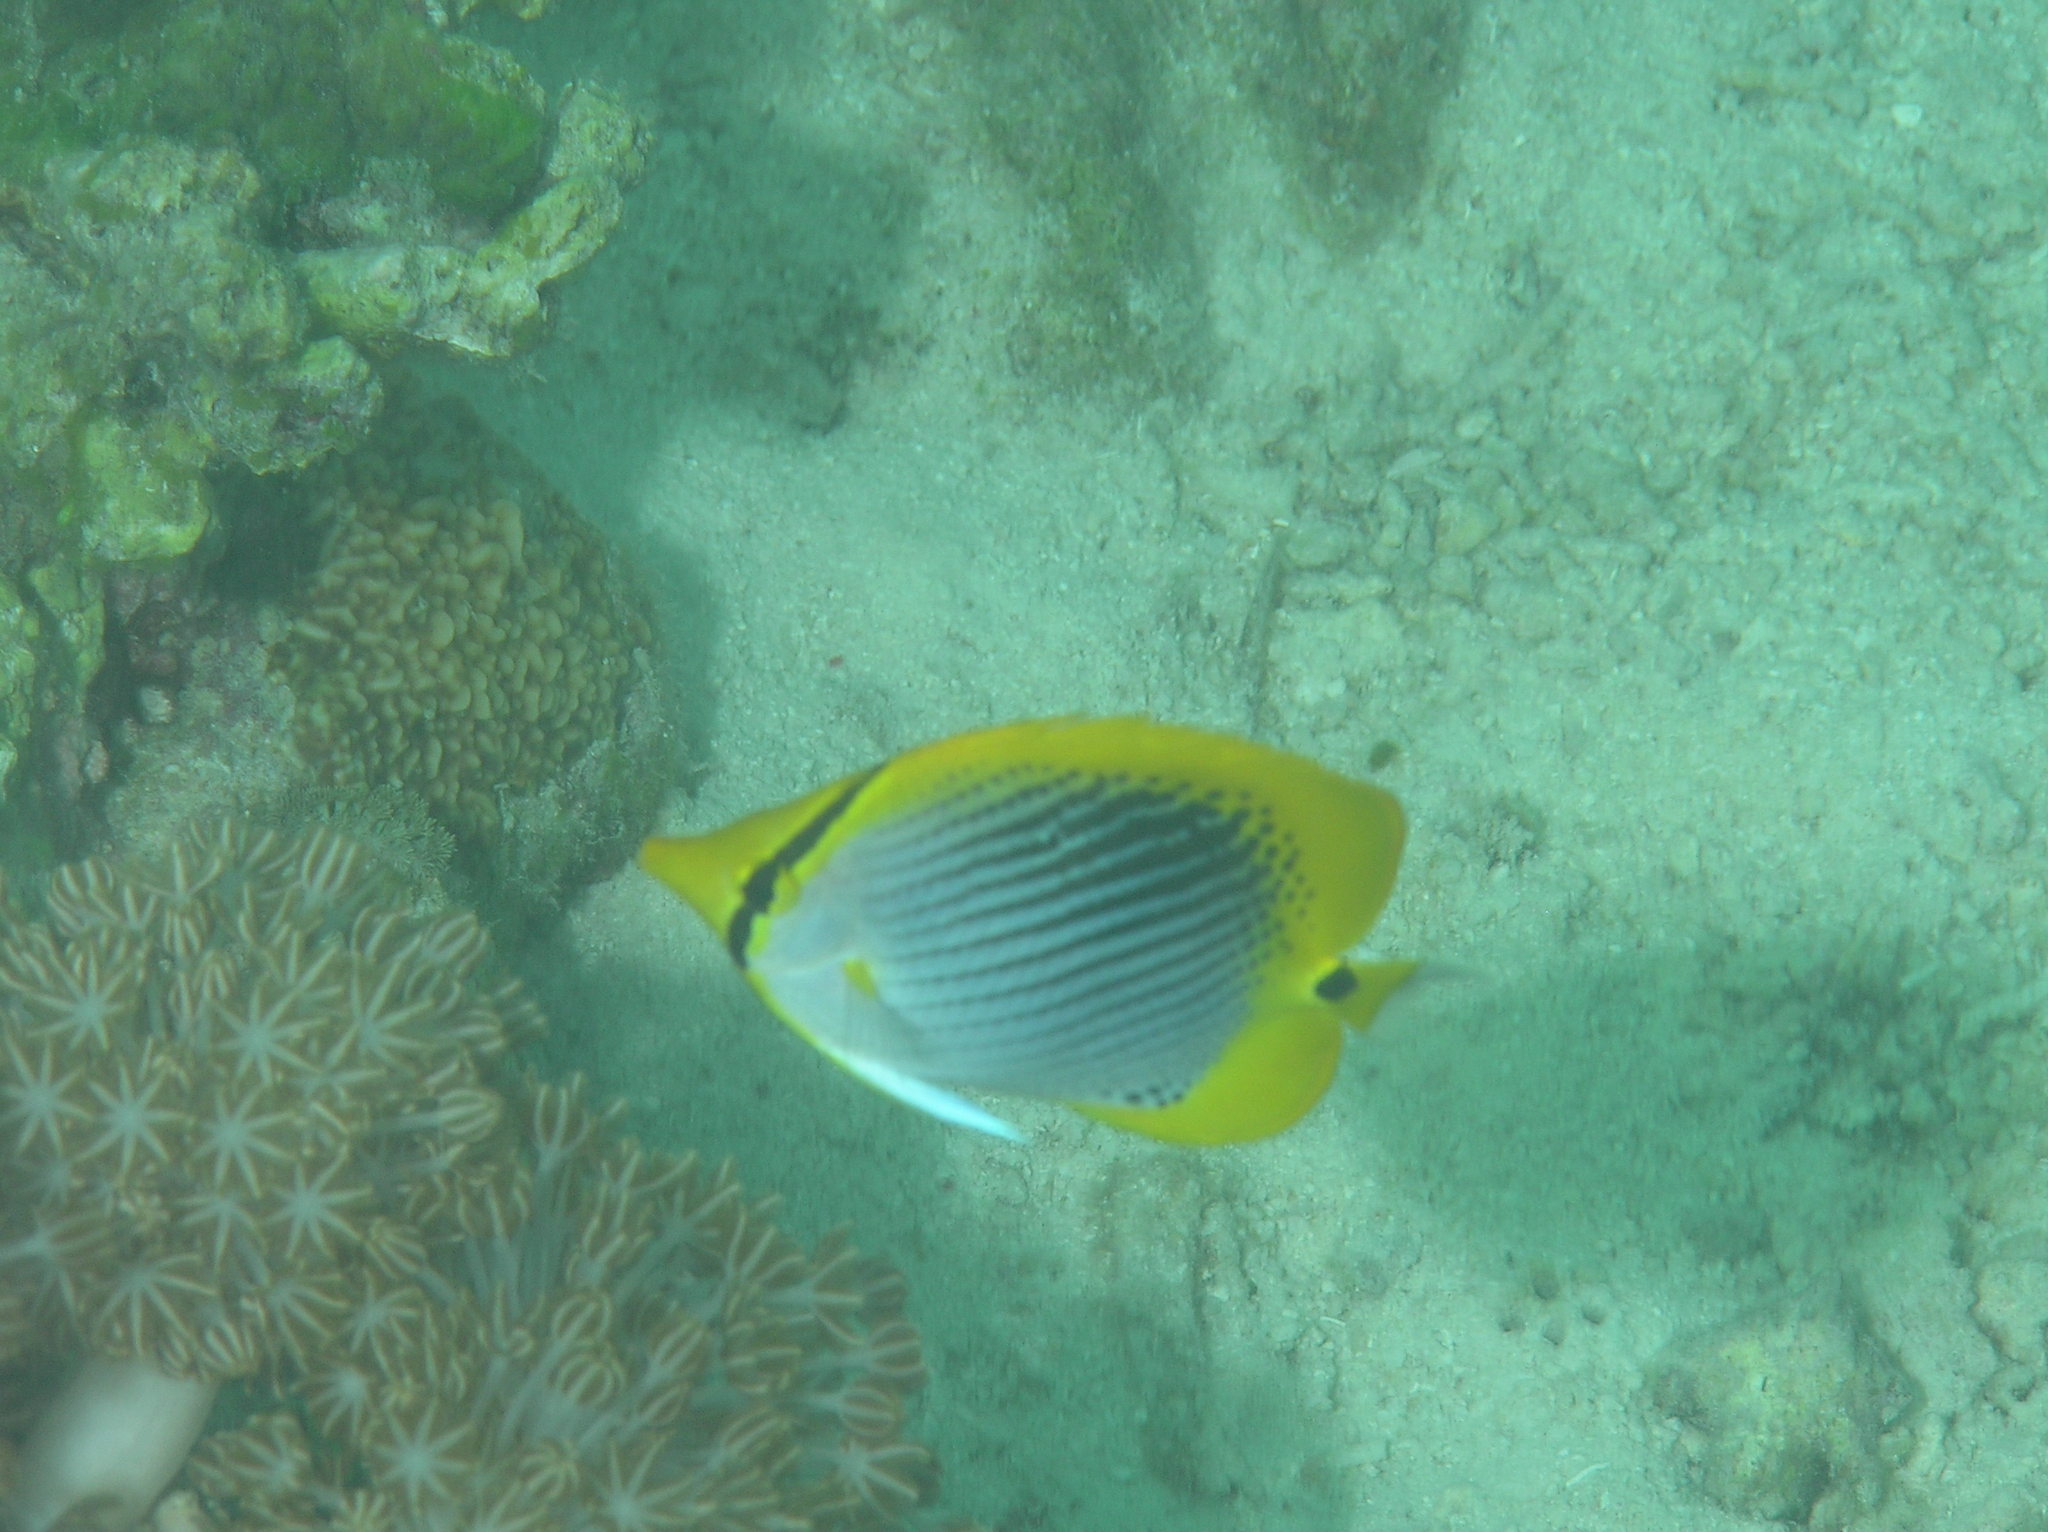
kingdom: Animalia
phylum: Chordata
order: Perciformes
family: Chaetodontidae
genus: Chaetodon
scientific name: Chaetodon ocellicaudus
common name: Spot-tail butterflyfish
